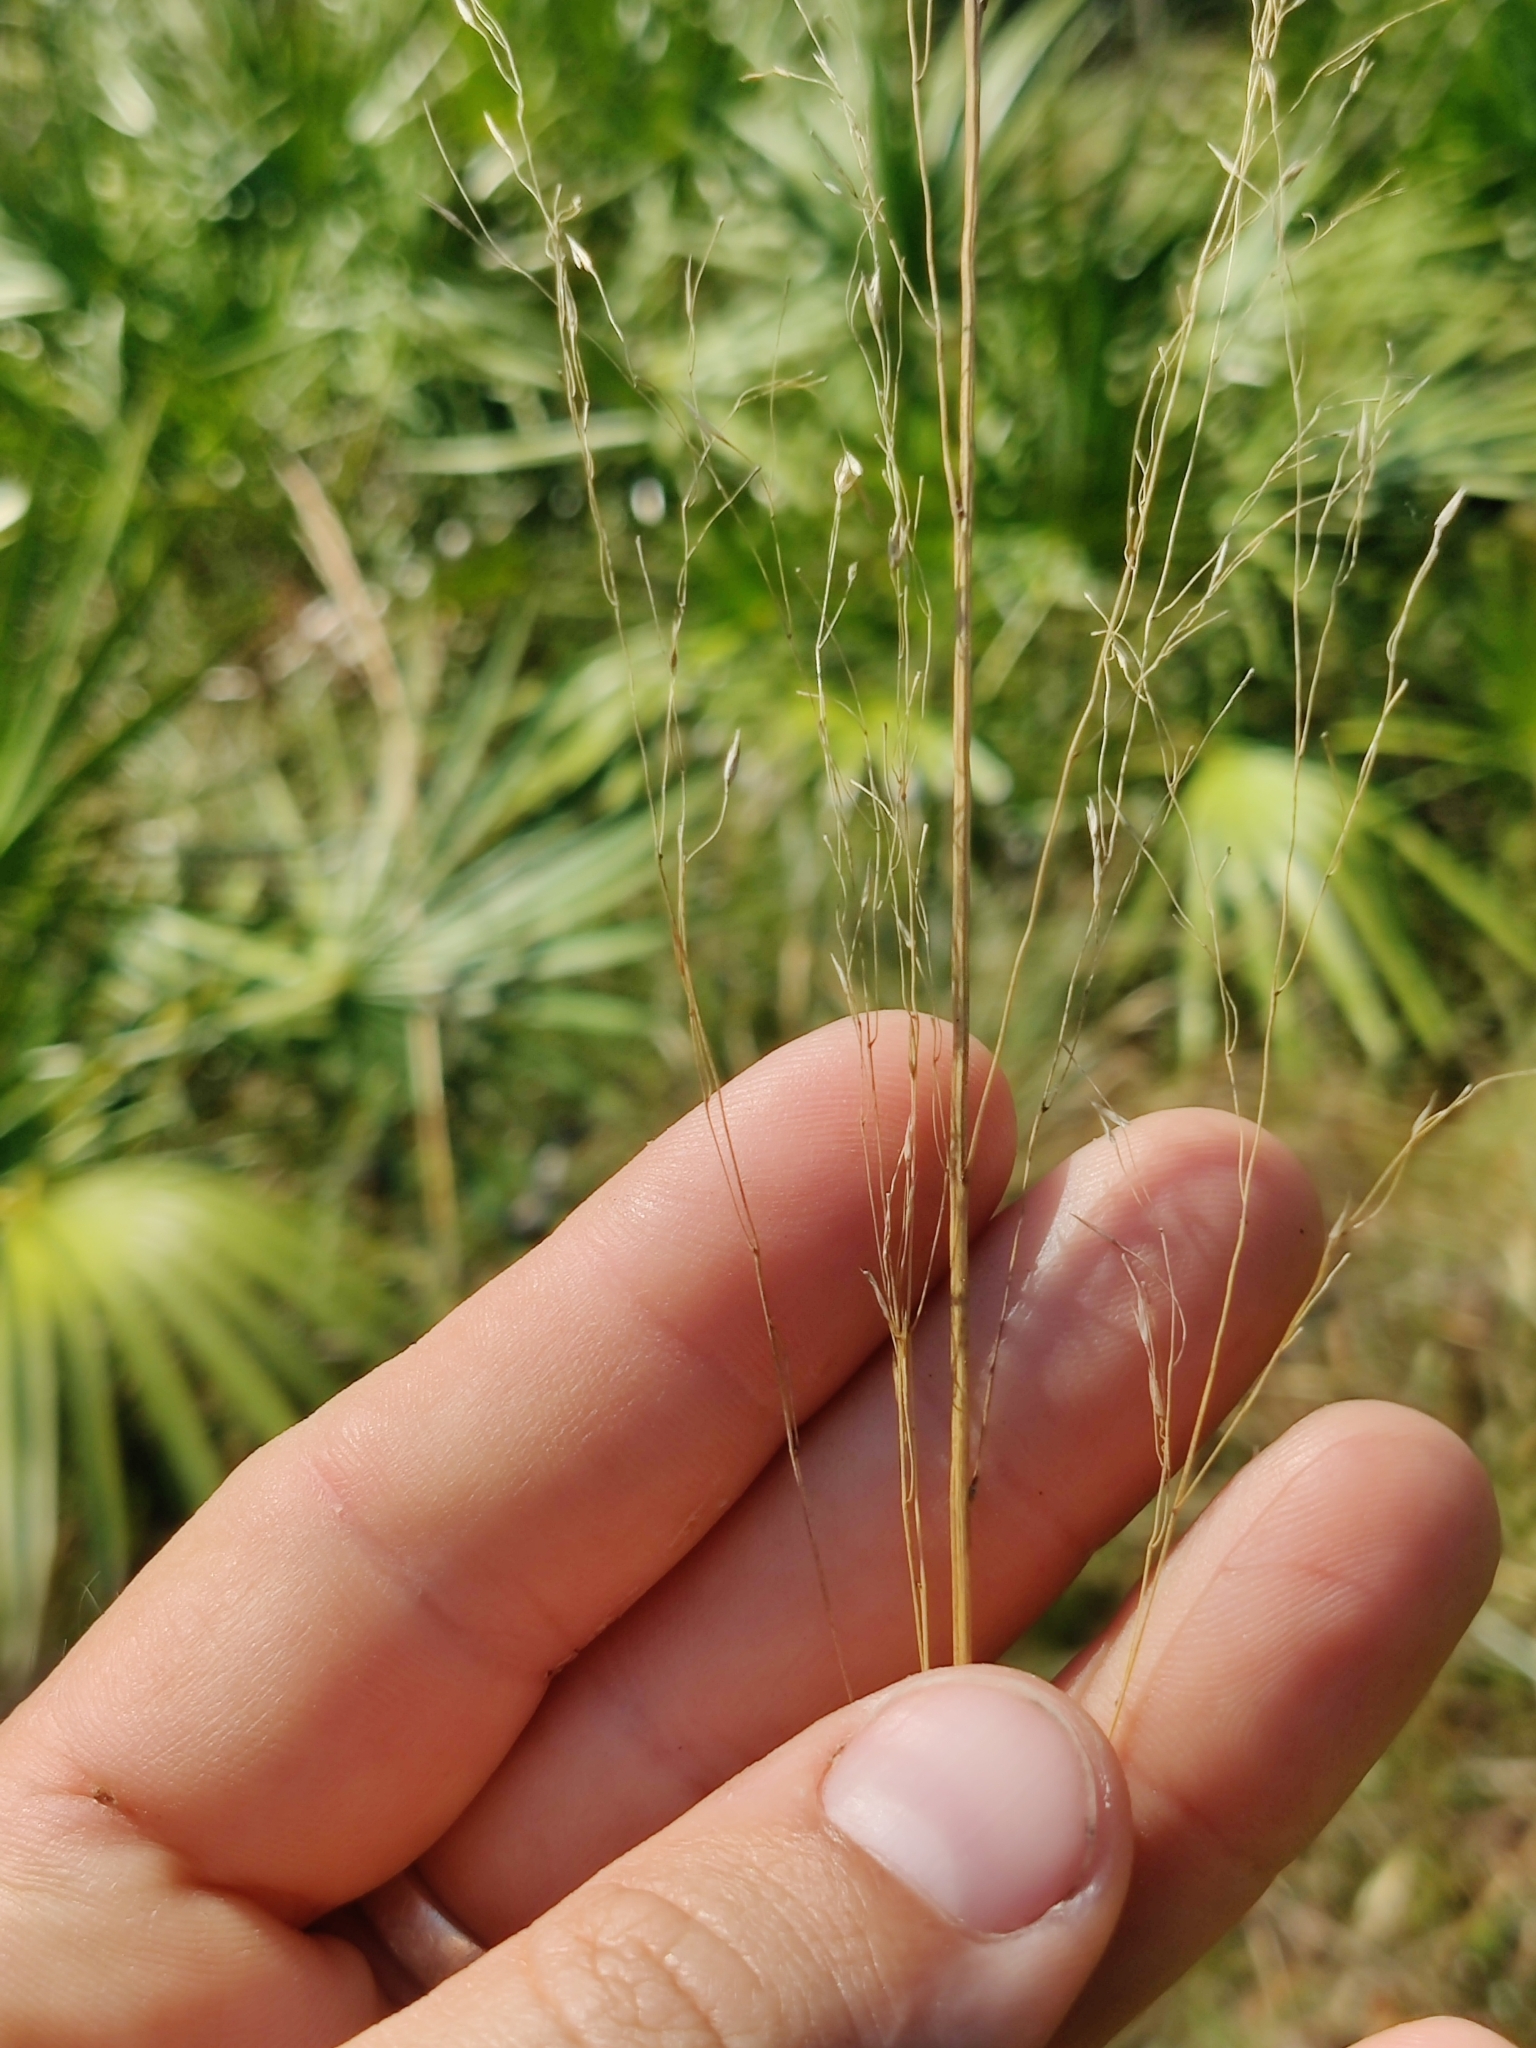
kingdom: Plantae
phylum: Tracheophyta
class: Liliopsida
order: Poales
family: Poaceae
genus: Sporobolus
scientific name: Sporobolus floridanus
